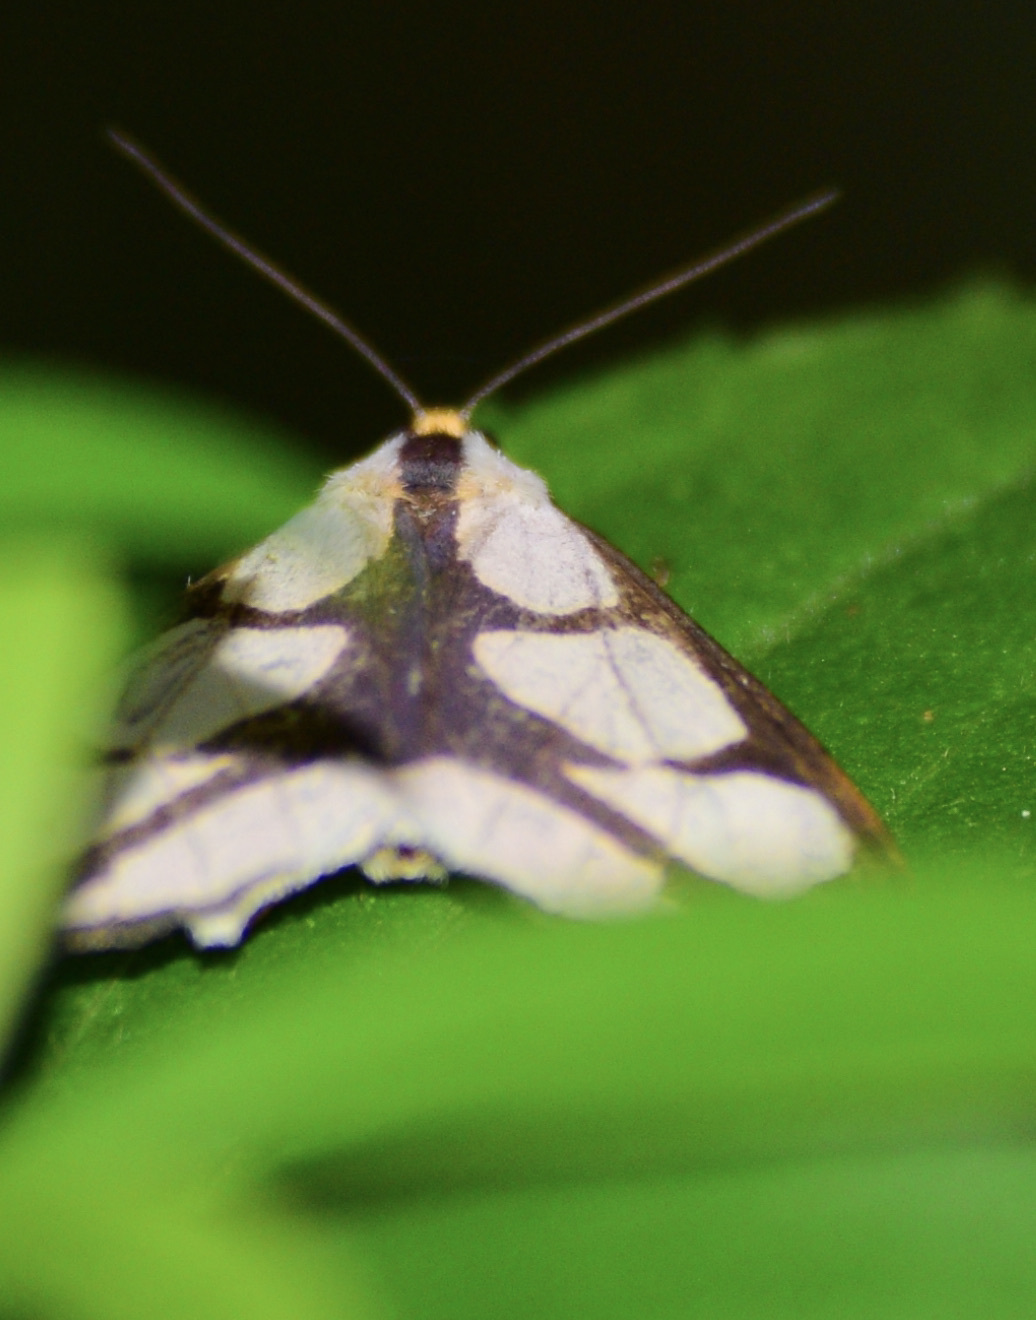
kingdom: Animalia
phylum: Arthropoda
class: Insecta
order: Lepidoptera
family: Erebidae
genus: Haploa
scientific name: Haploa lecontei
